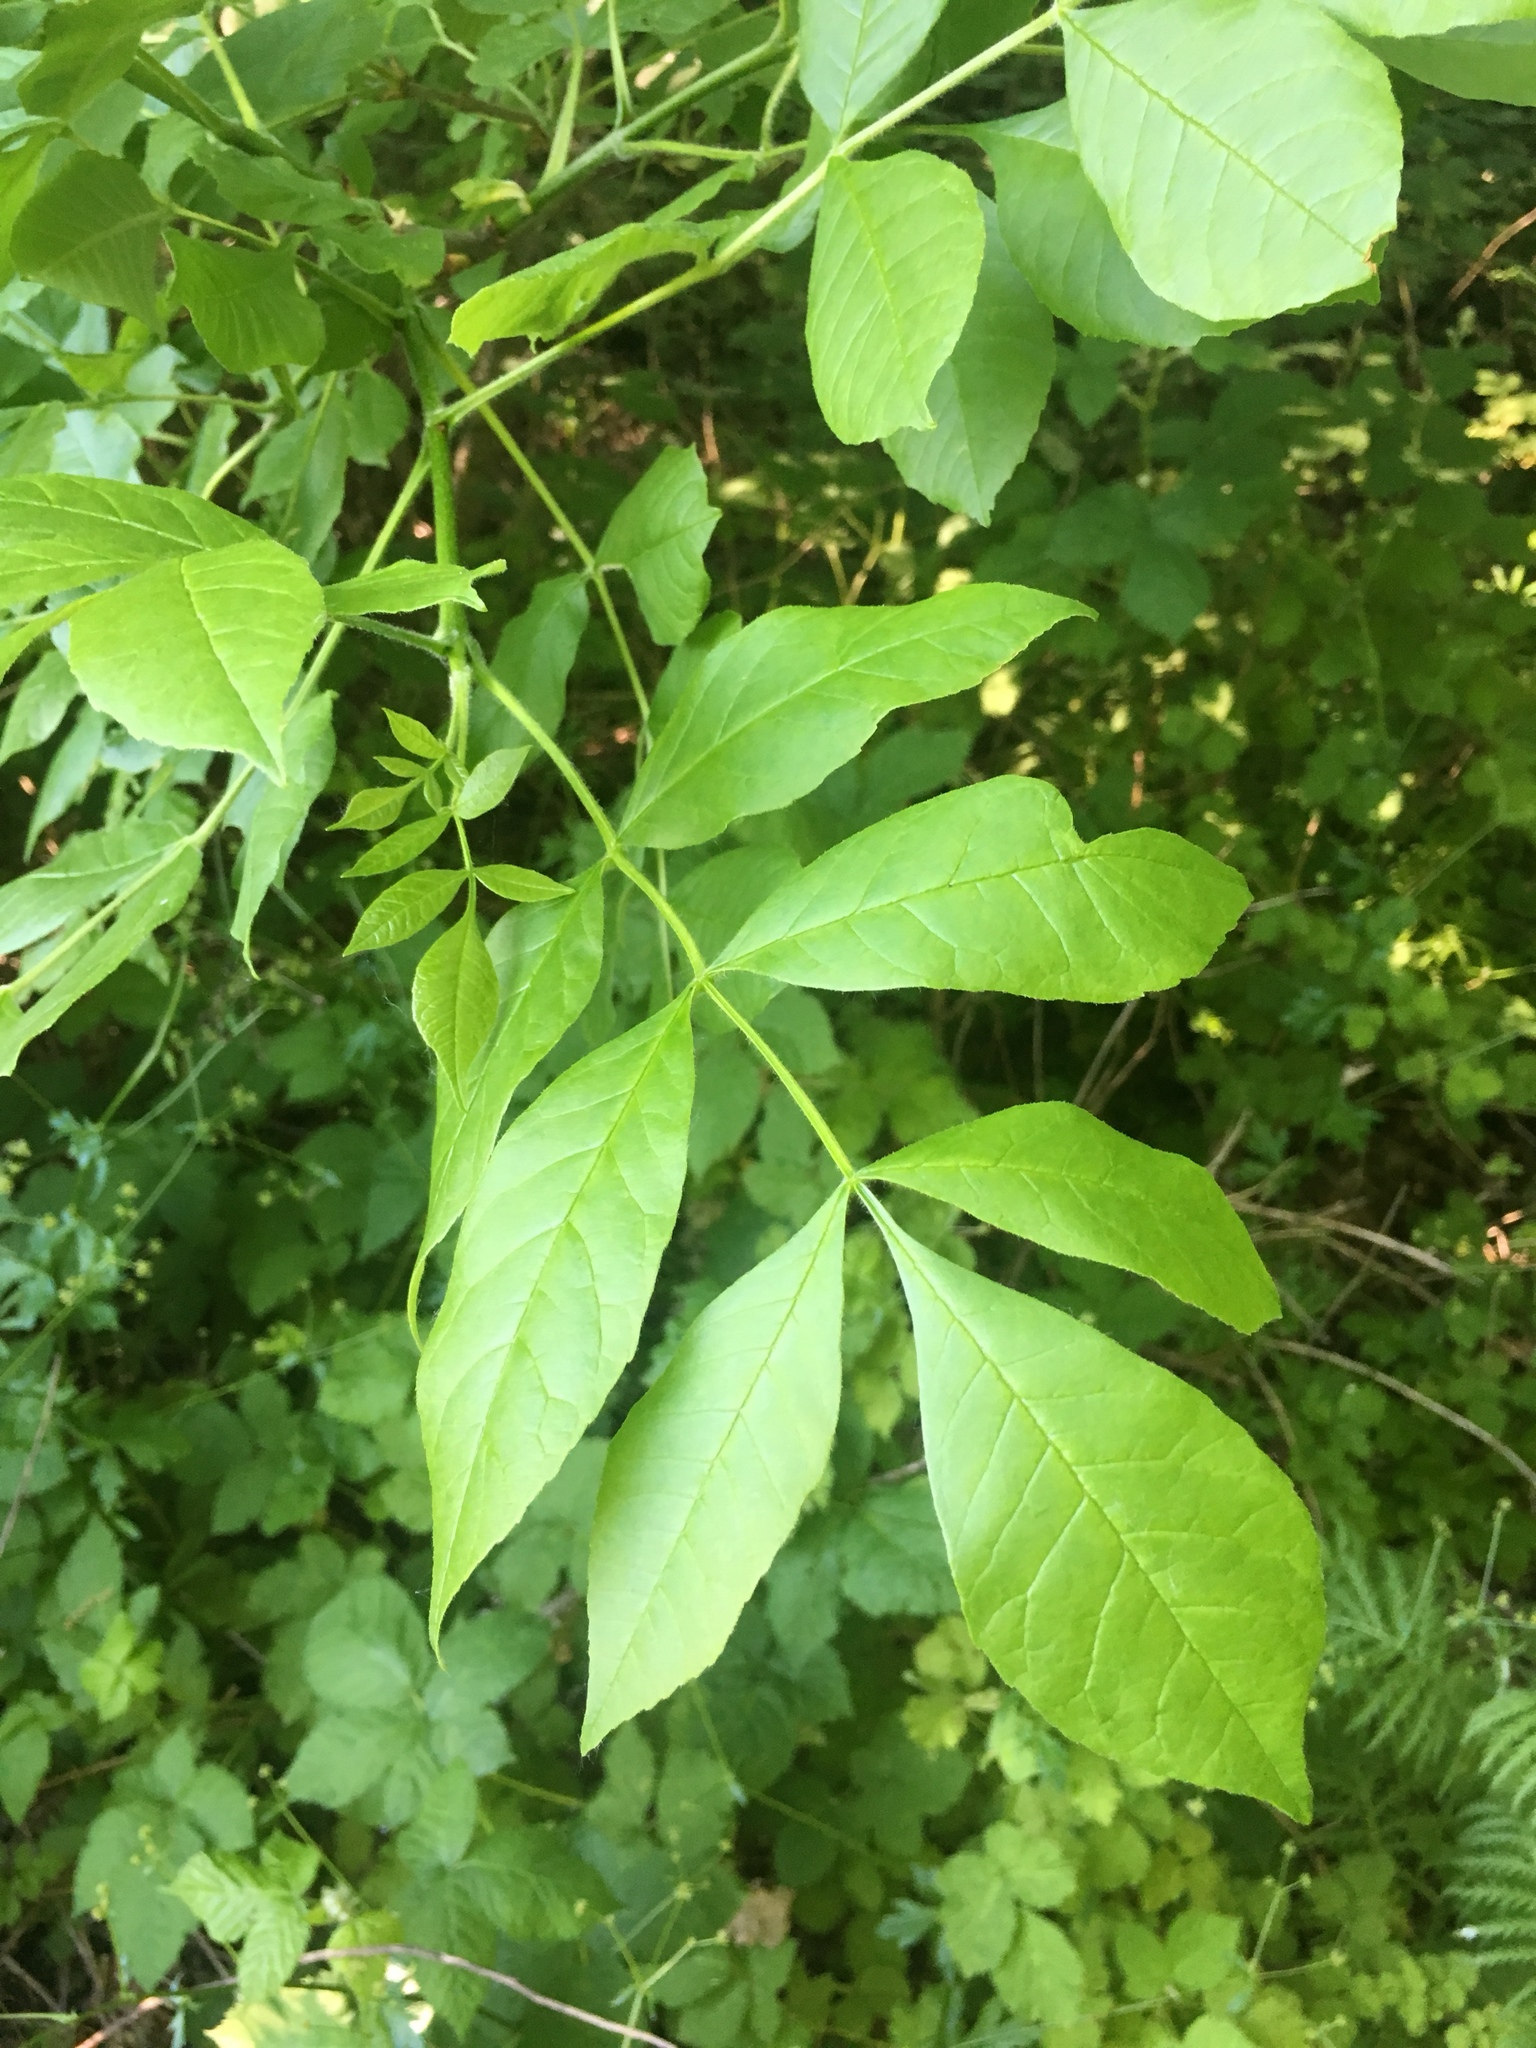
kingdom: Plantae
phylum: Tracheophyta
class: Magnoliopsida
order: Lamiales
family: Oleaceae
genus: Fraxinus
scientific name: Fraxinus latifolia
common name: Oregon ash
